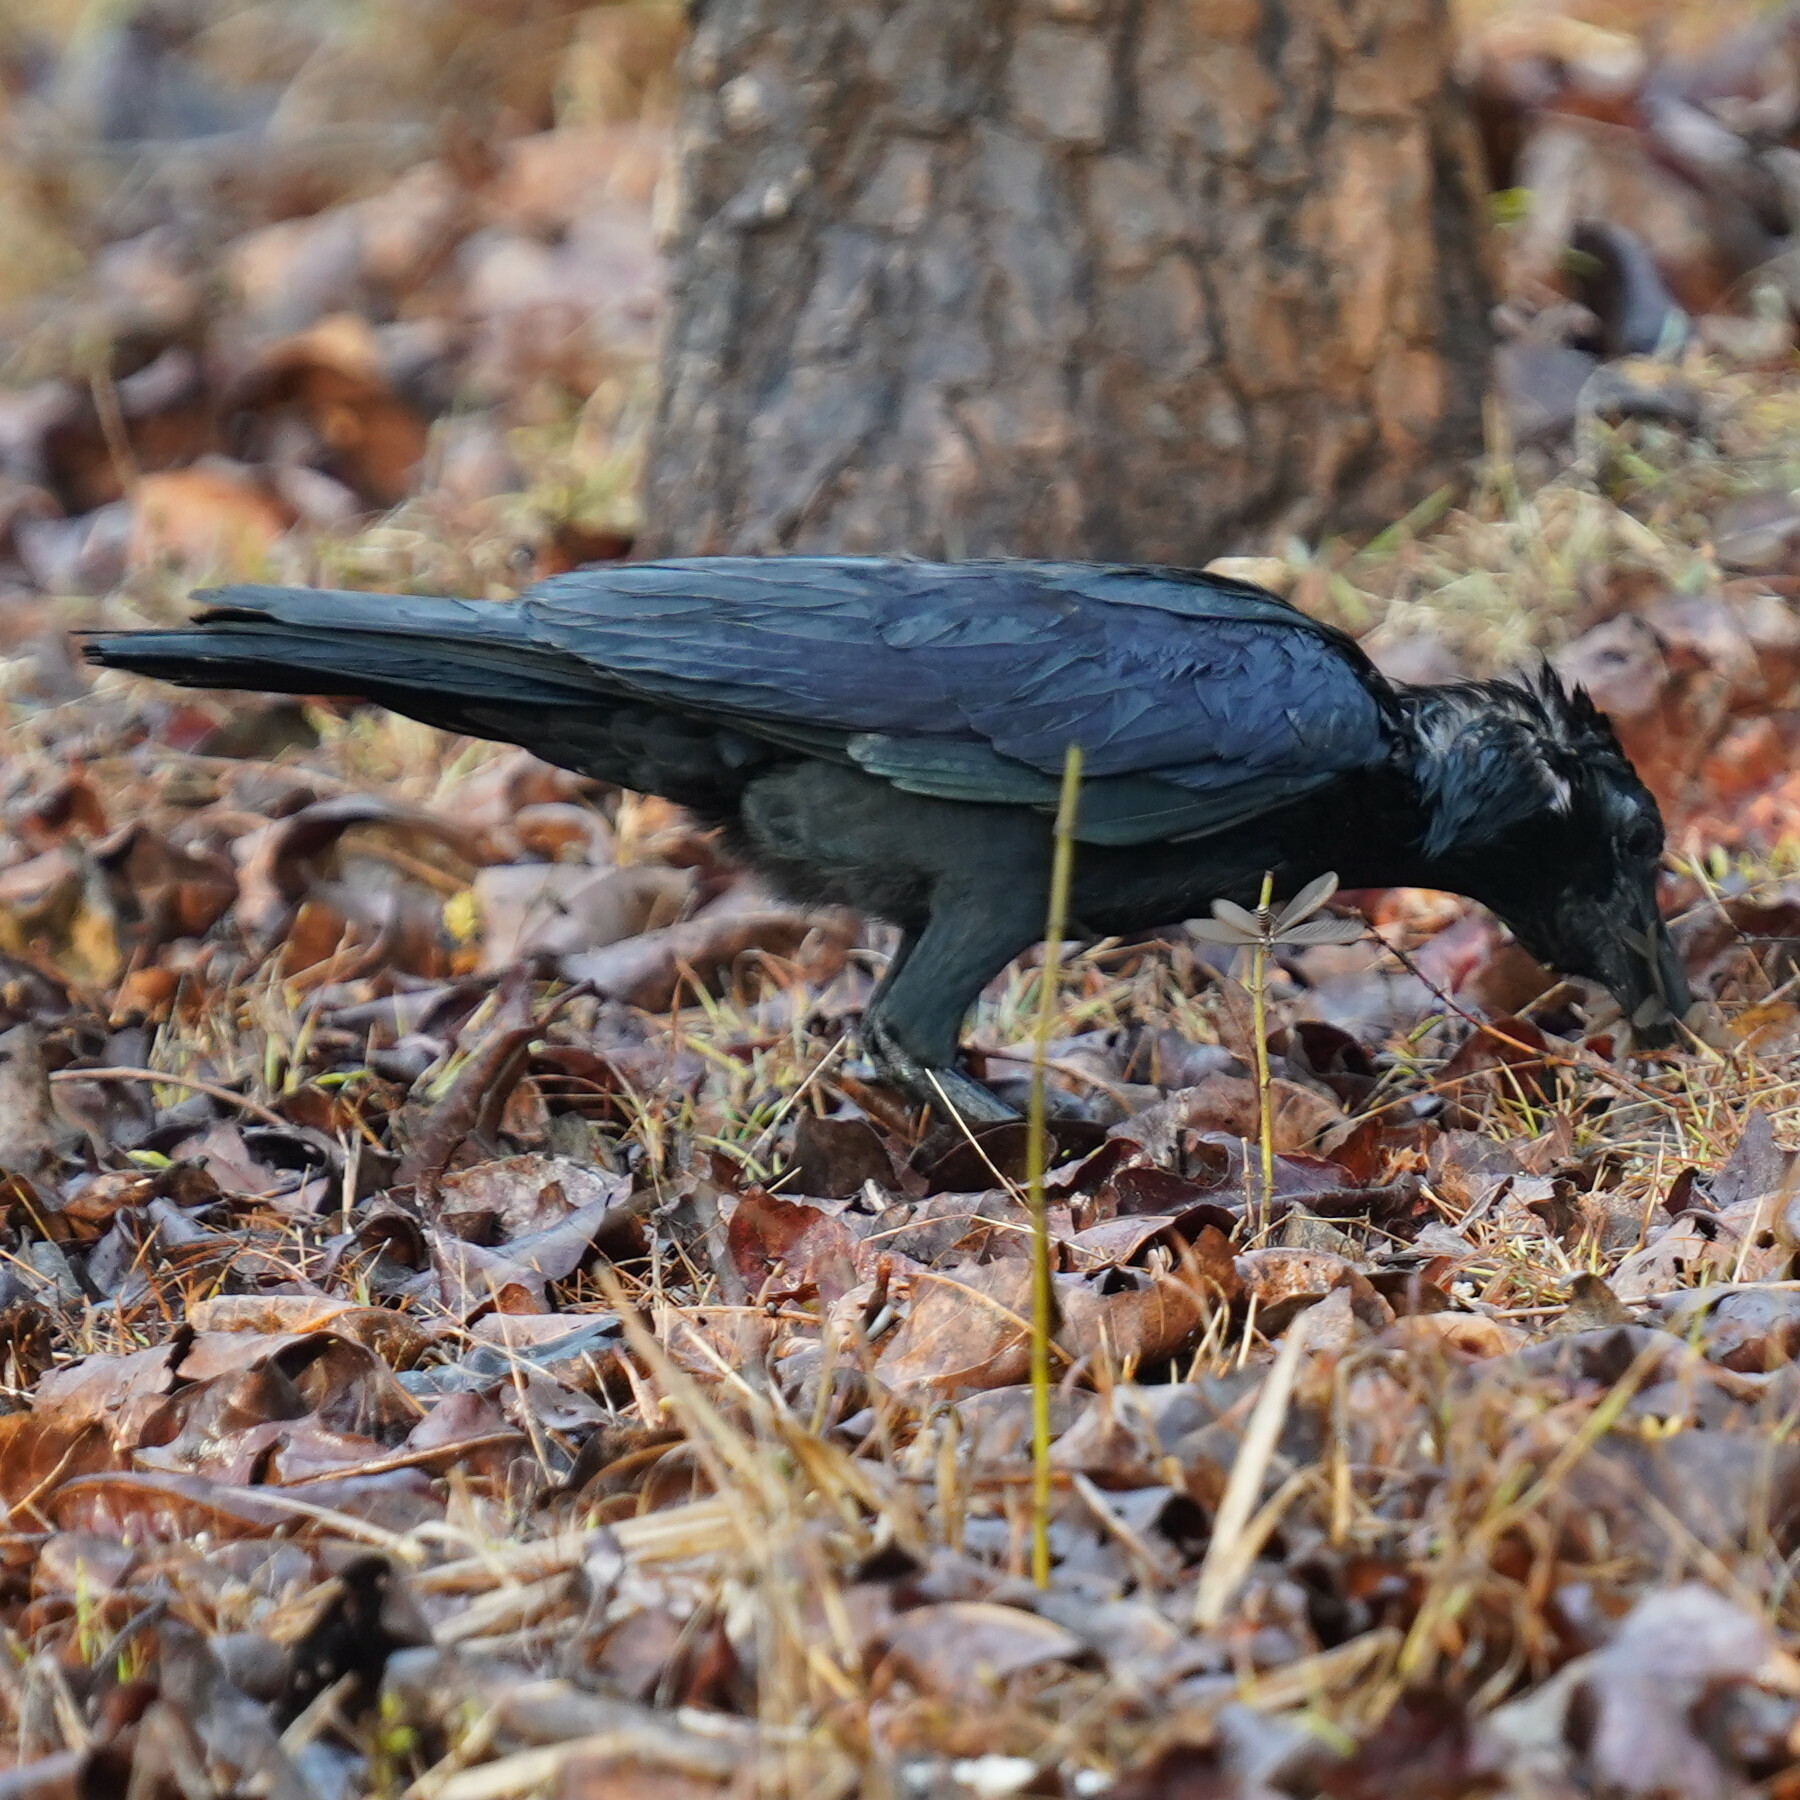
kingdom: Animalia
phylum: Chordata
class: Aves
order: Passeriformes
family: Corvidae
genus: Corvus
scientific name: Corvus macrorhynchos
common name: Large-billed crow
